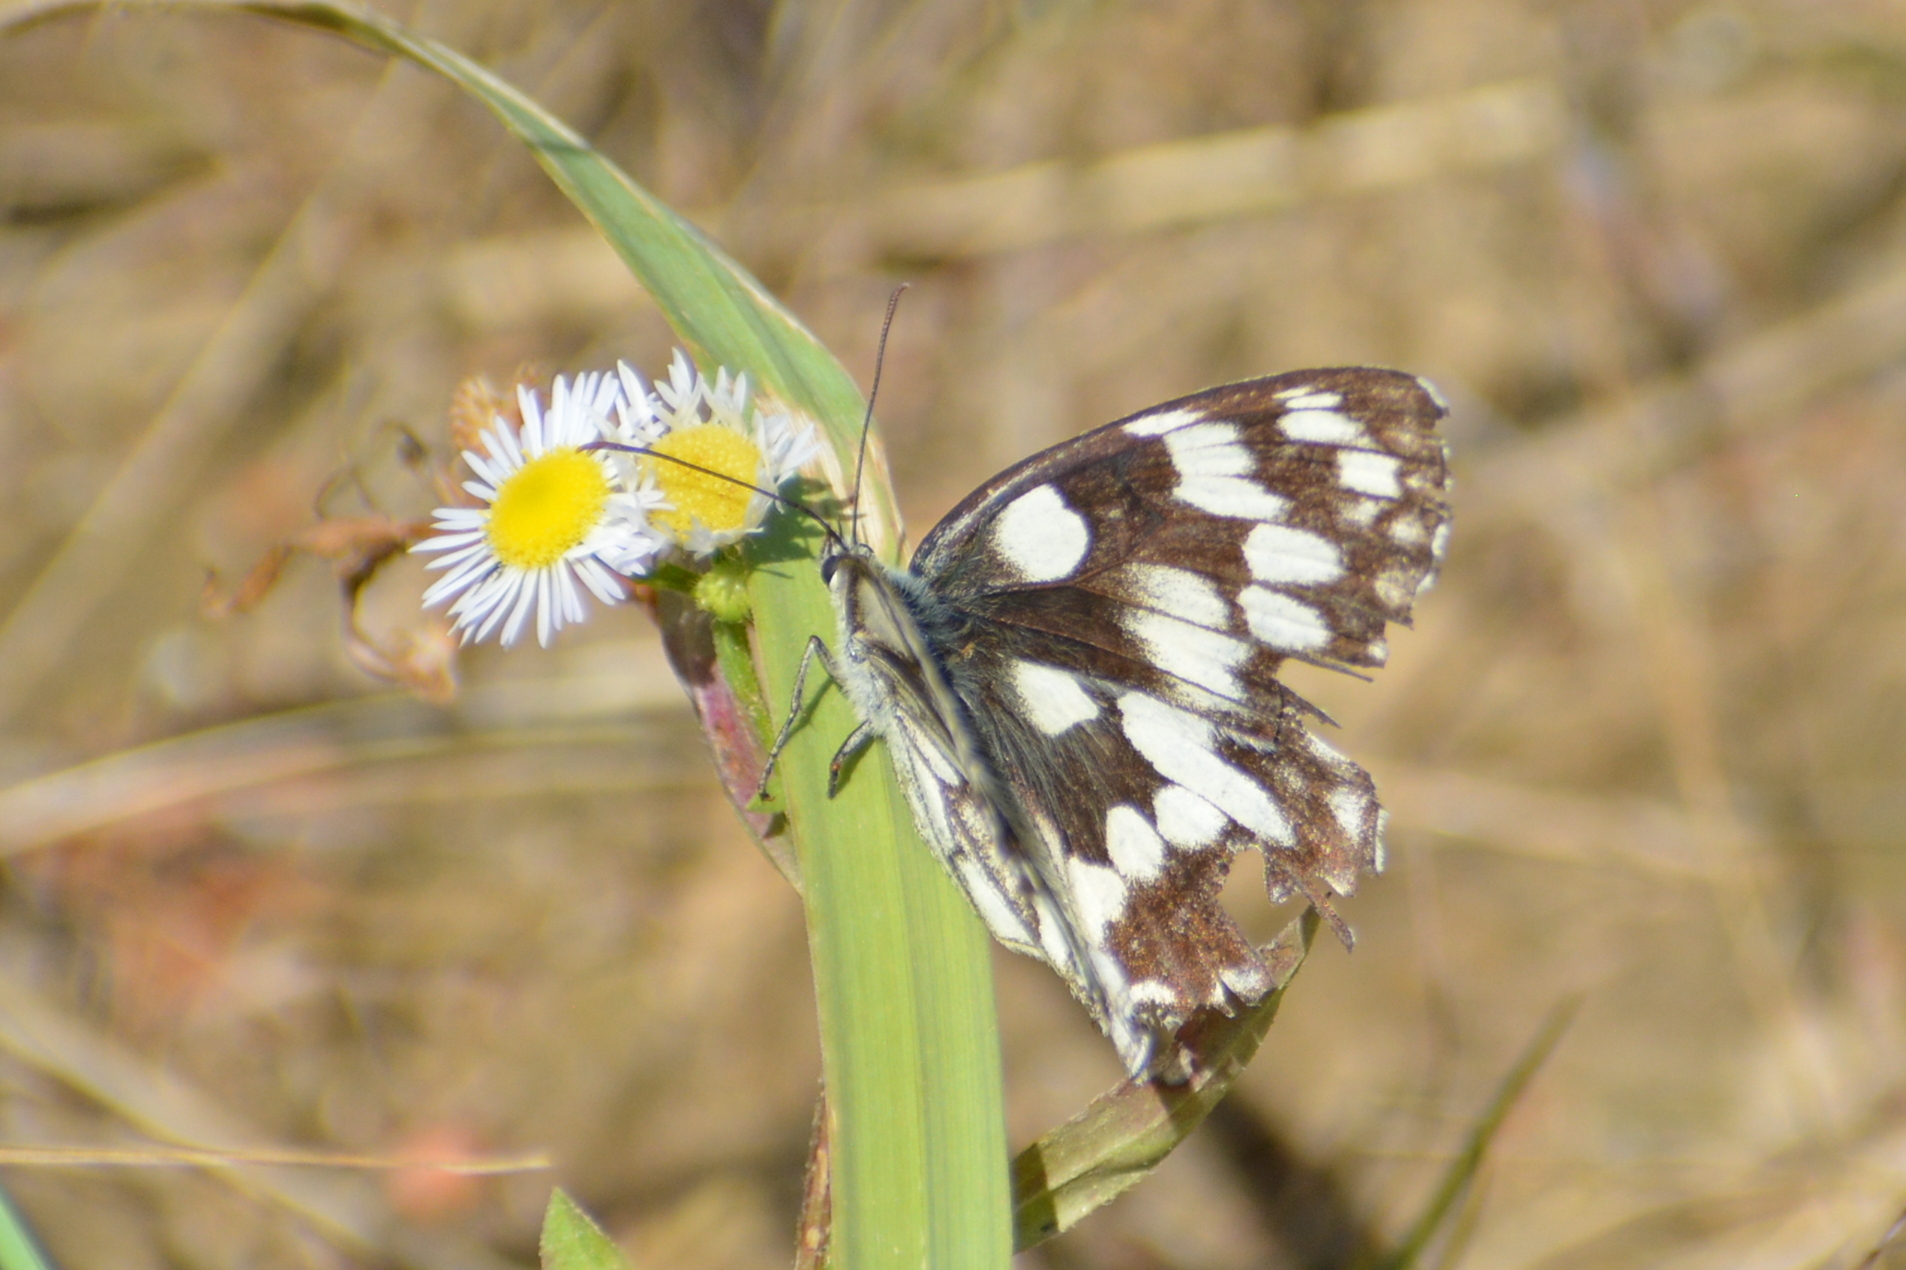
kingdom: Animalia
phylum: Arthropoda
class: Insecta
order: Lepidoptera
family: Nymphalidae
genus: Melanargia
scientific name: Melanargia galathea
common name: Marbled white
